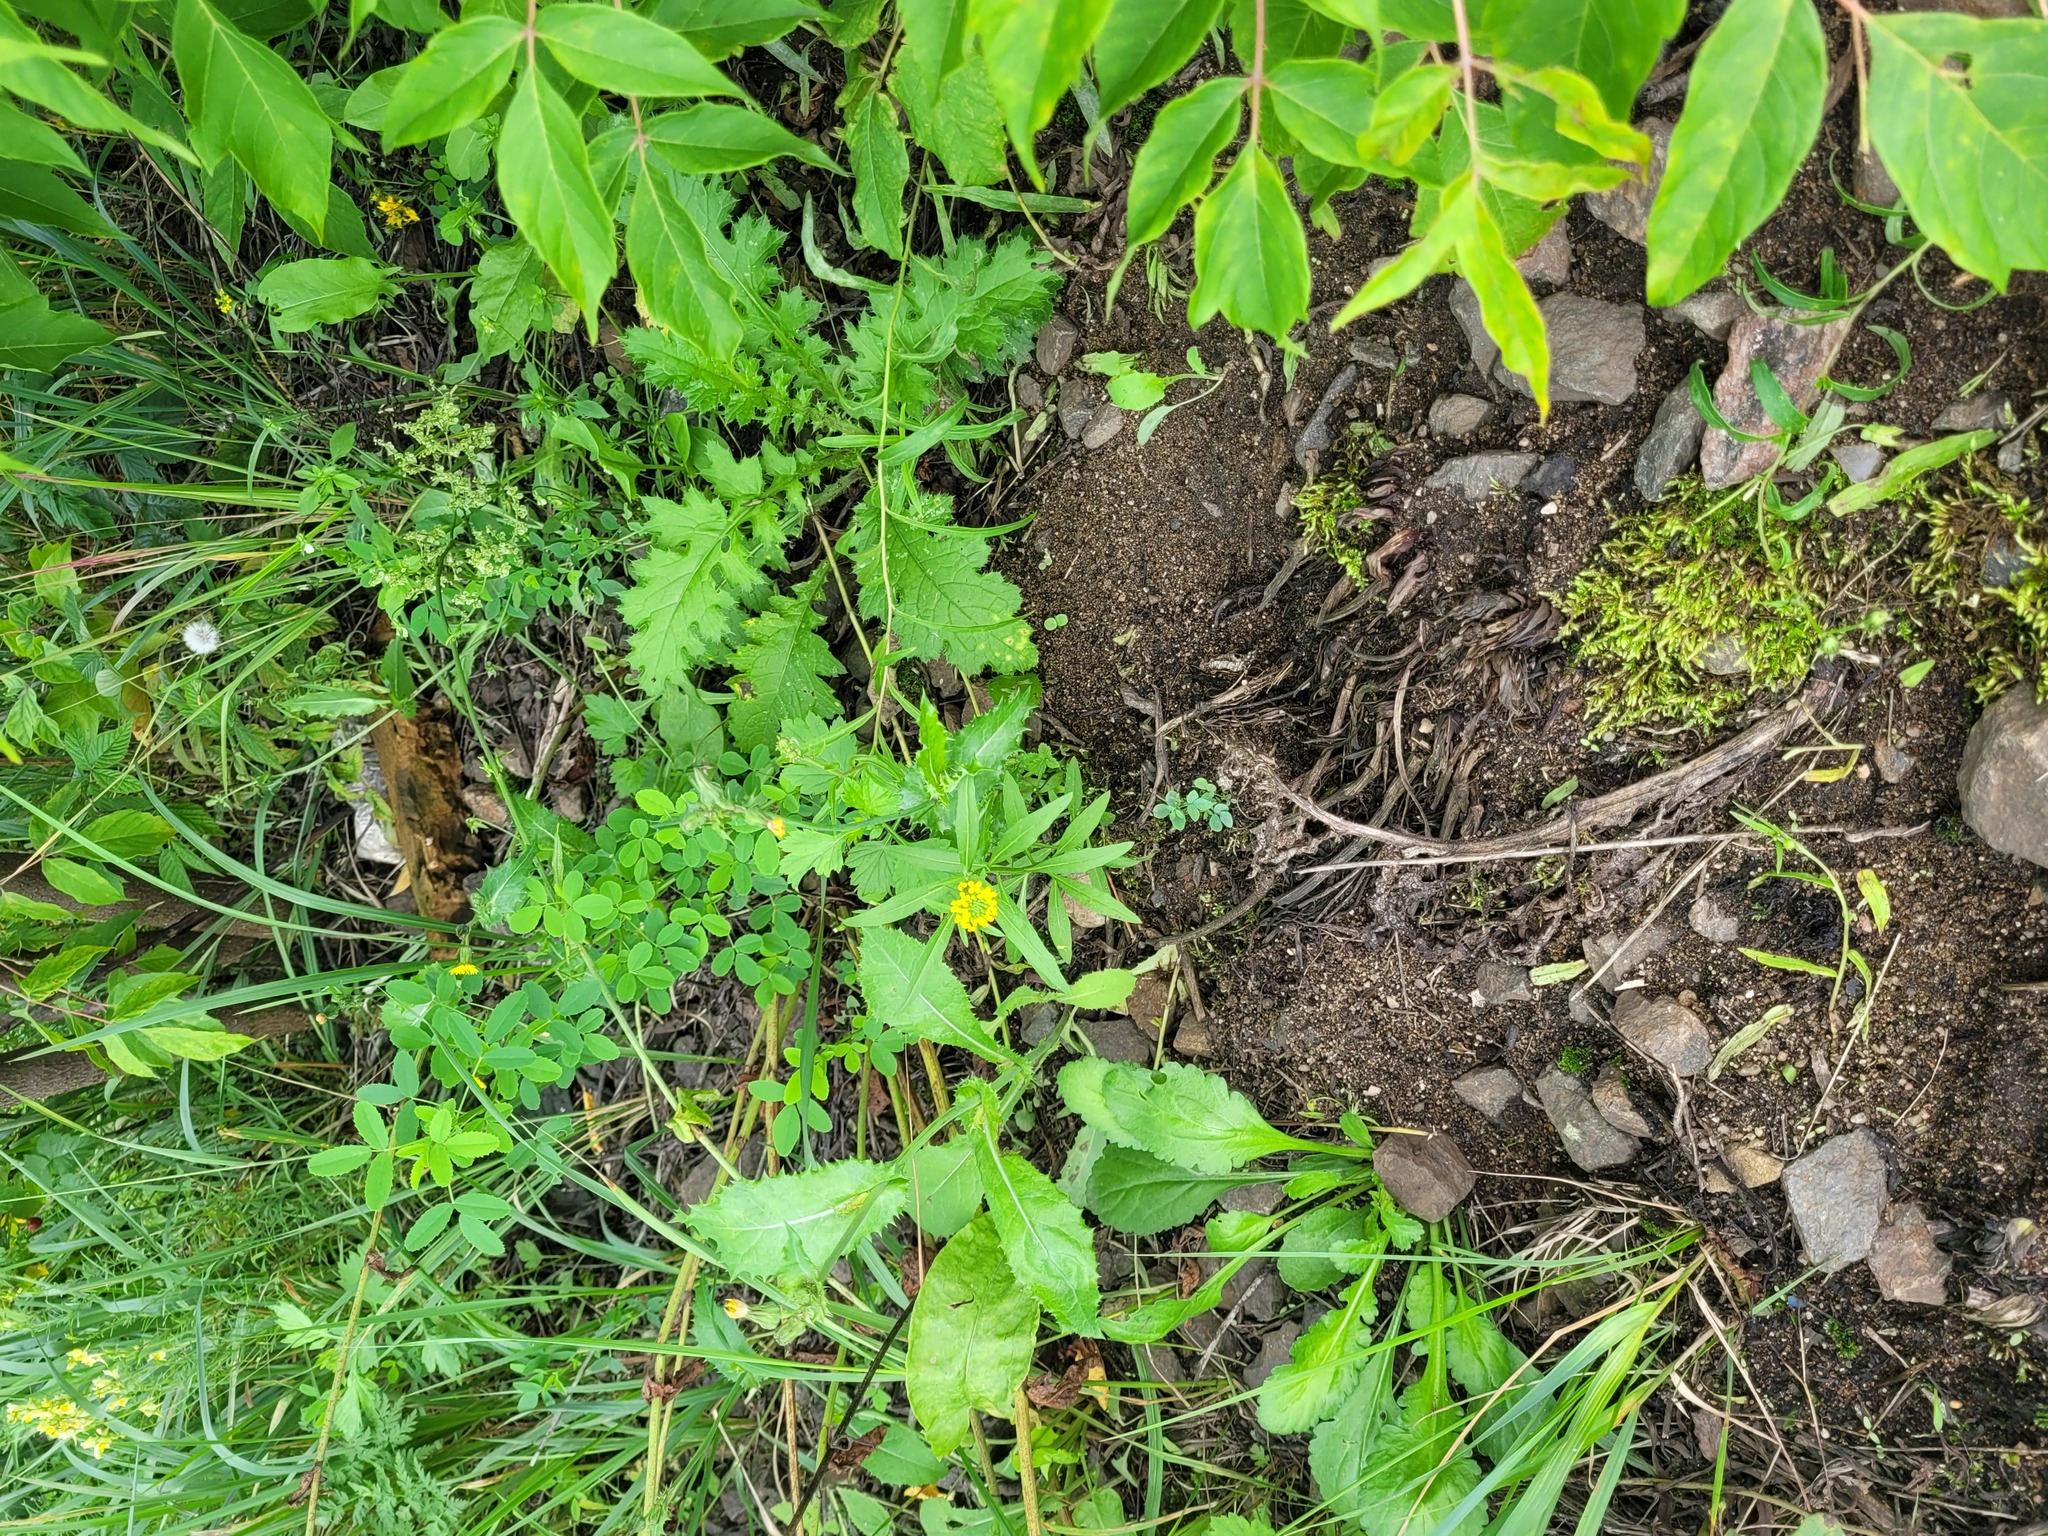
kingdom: Plantae
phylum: Tracheophyta
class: Magnoliopsida
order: Brassicales
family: Brassicaceae
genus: Erysimum
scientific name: Erysimum cheiranthoides
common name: Treacle mustard
